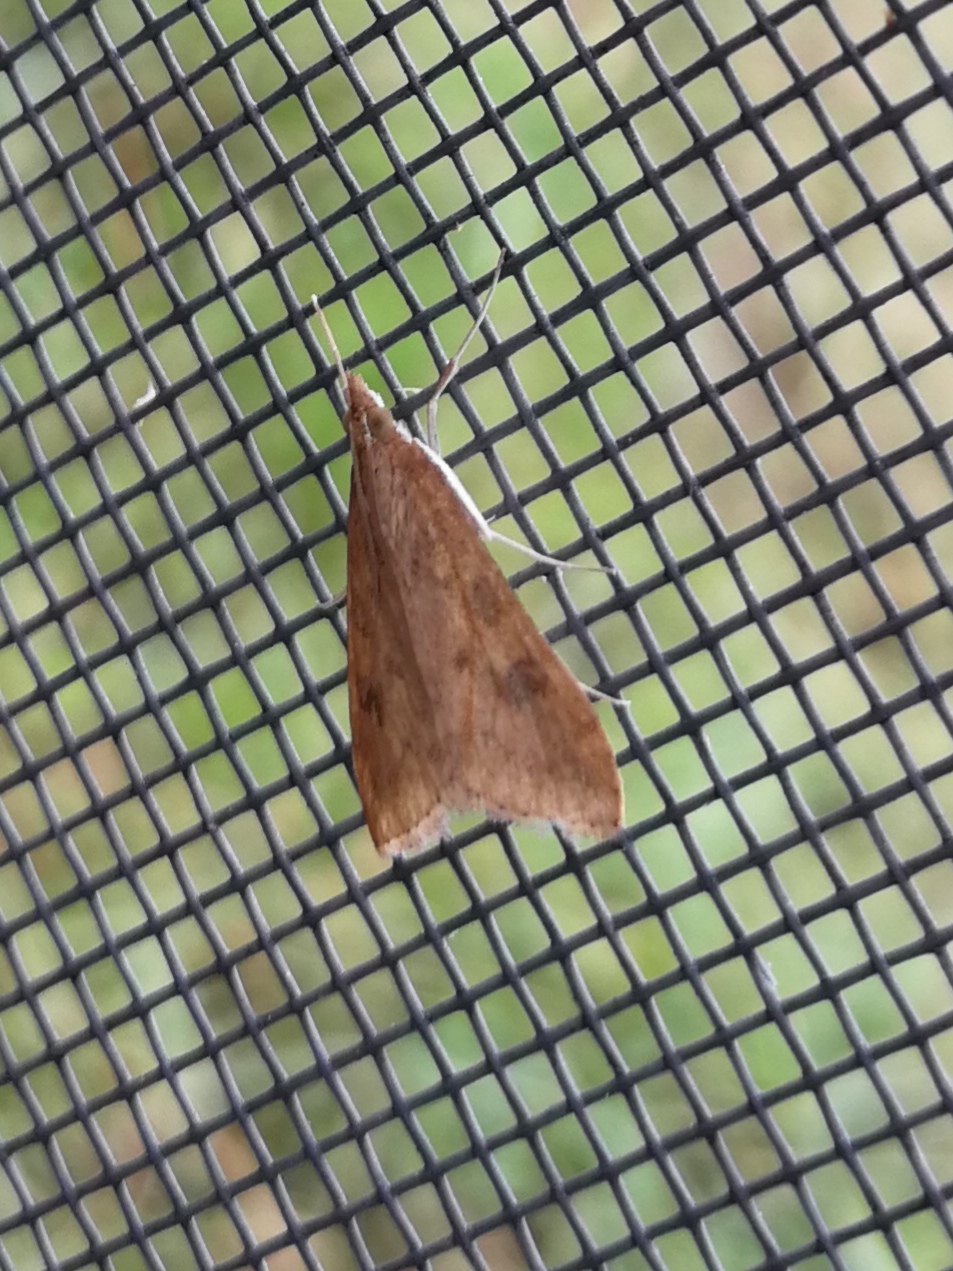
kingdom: Animalia
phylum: Arthropoda
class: Insecta
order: Lepidoptera
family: Crambidae
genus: Udea
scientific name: Udea ferrugalis
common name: Rusty dot
